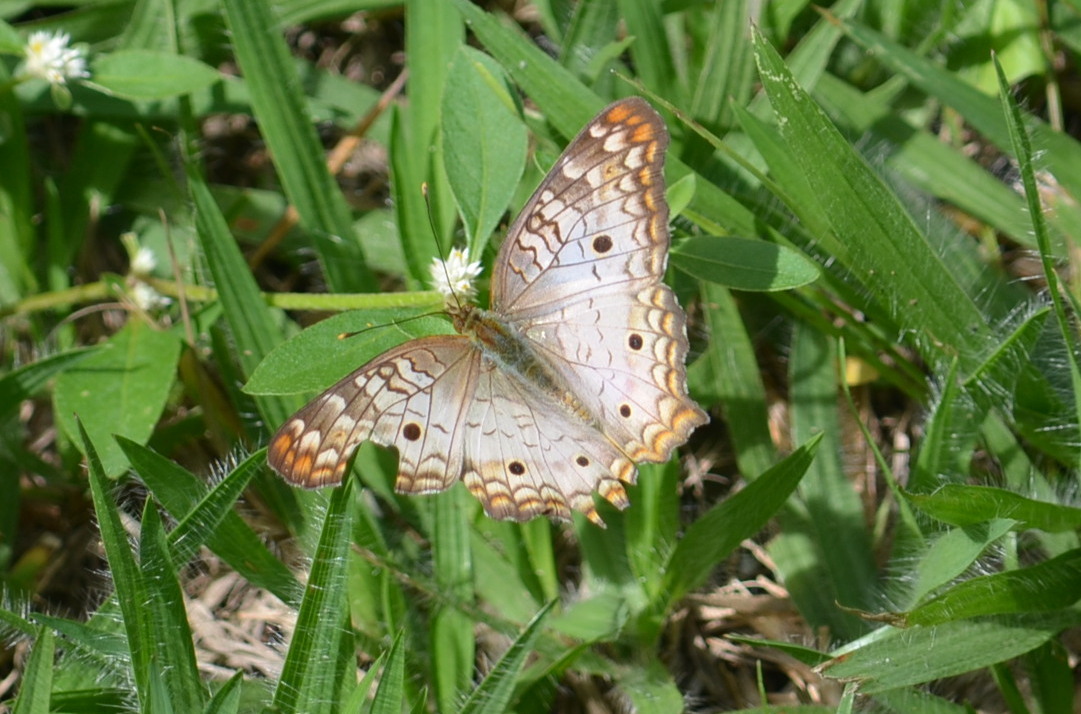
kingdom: Animalia
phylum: Arthropoda
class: Insecta
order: Lepidoptera
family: Nymphalidae
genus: Anartia
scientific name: Anartia jatrophae
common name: White peacock
